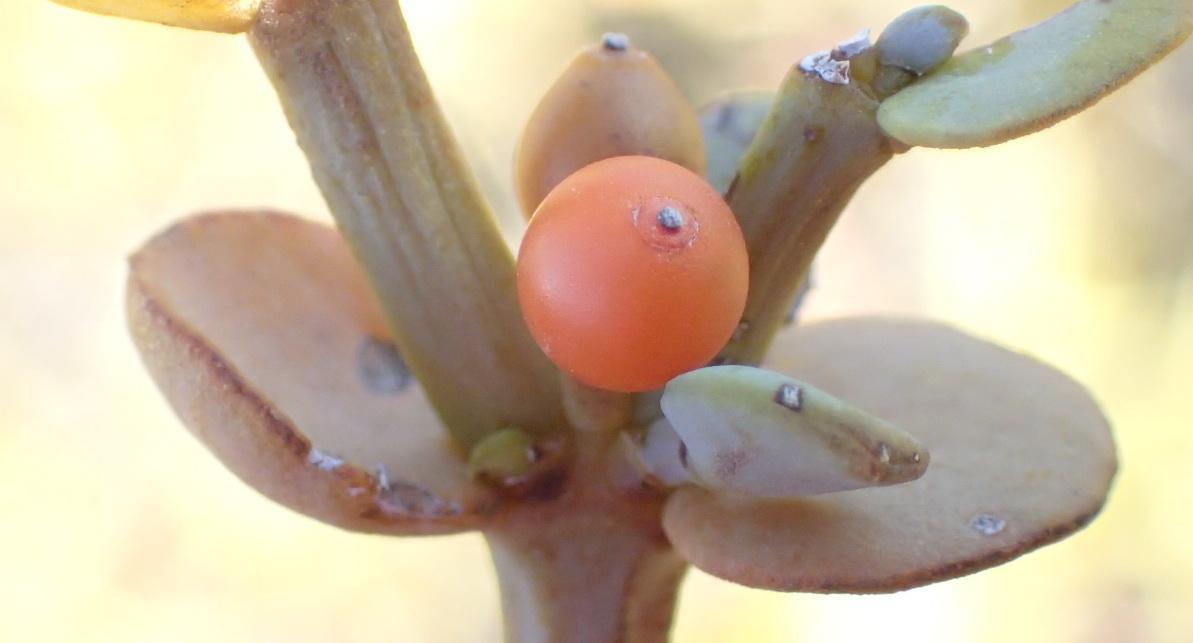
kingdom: Plantae
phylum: Tracheophyta
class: Magnoliopsida
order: Santalales
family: Viscaceae
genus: Viscum
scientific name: Viscum rotundifolium
